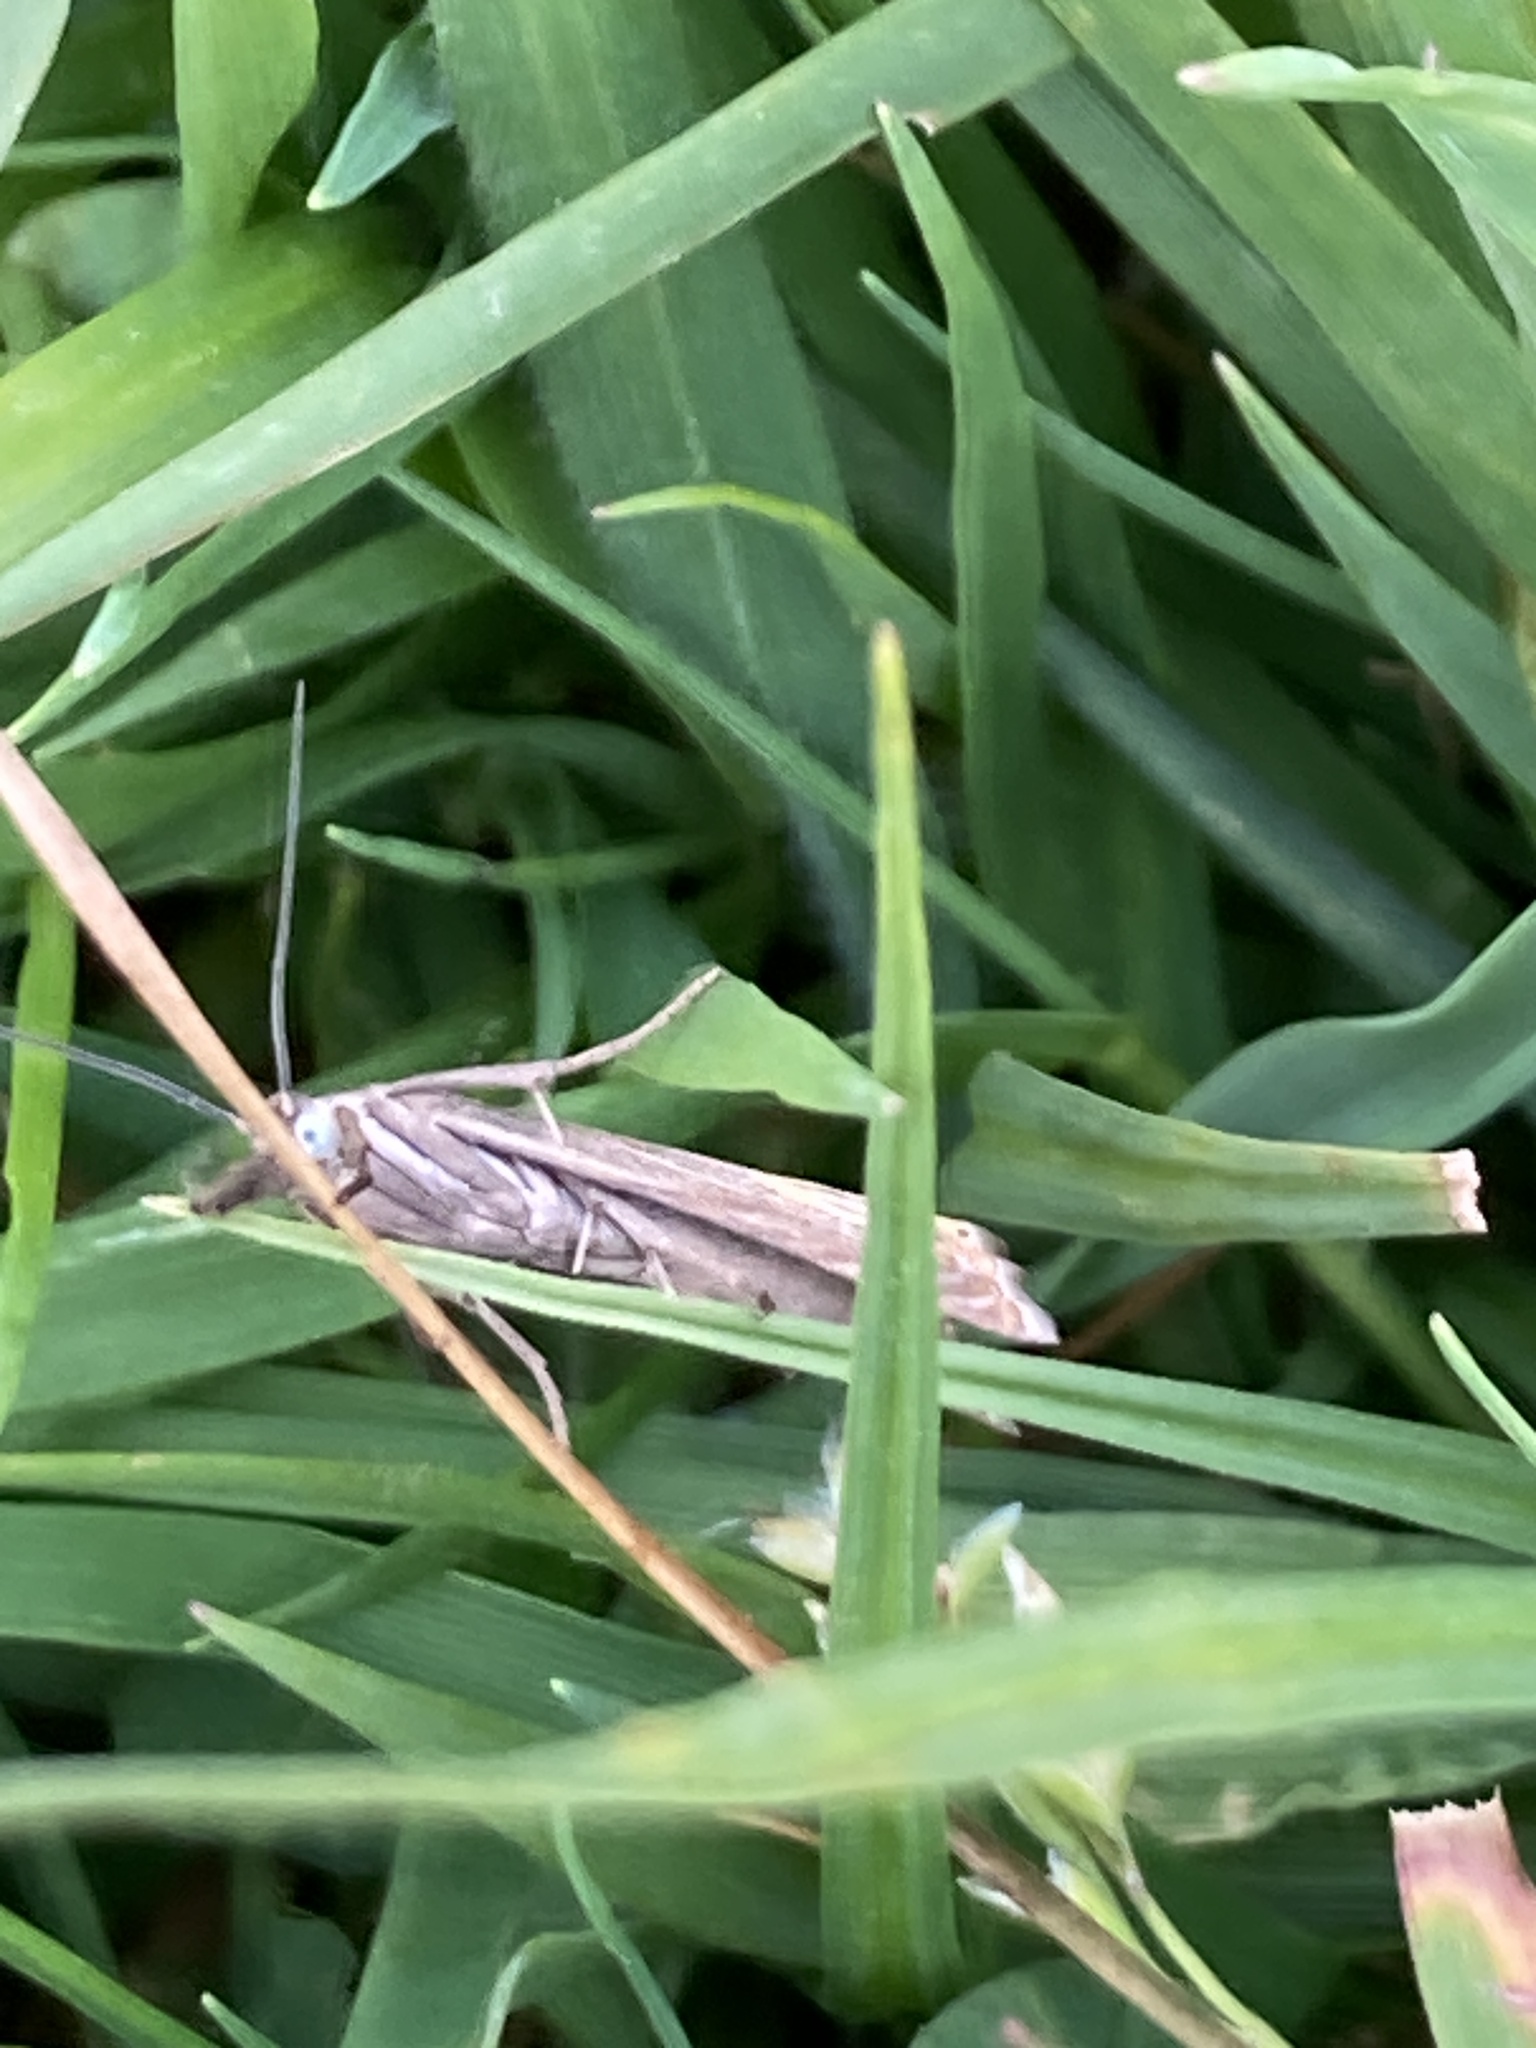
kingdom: Animalia
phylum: Arthropoda
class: Insecta
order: Lepidoptera
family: Crambidae
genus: Chrysoteuchia
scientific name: Chrysoteuchia culmella
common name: Garden grass-veneer
